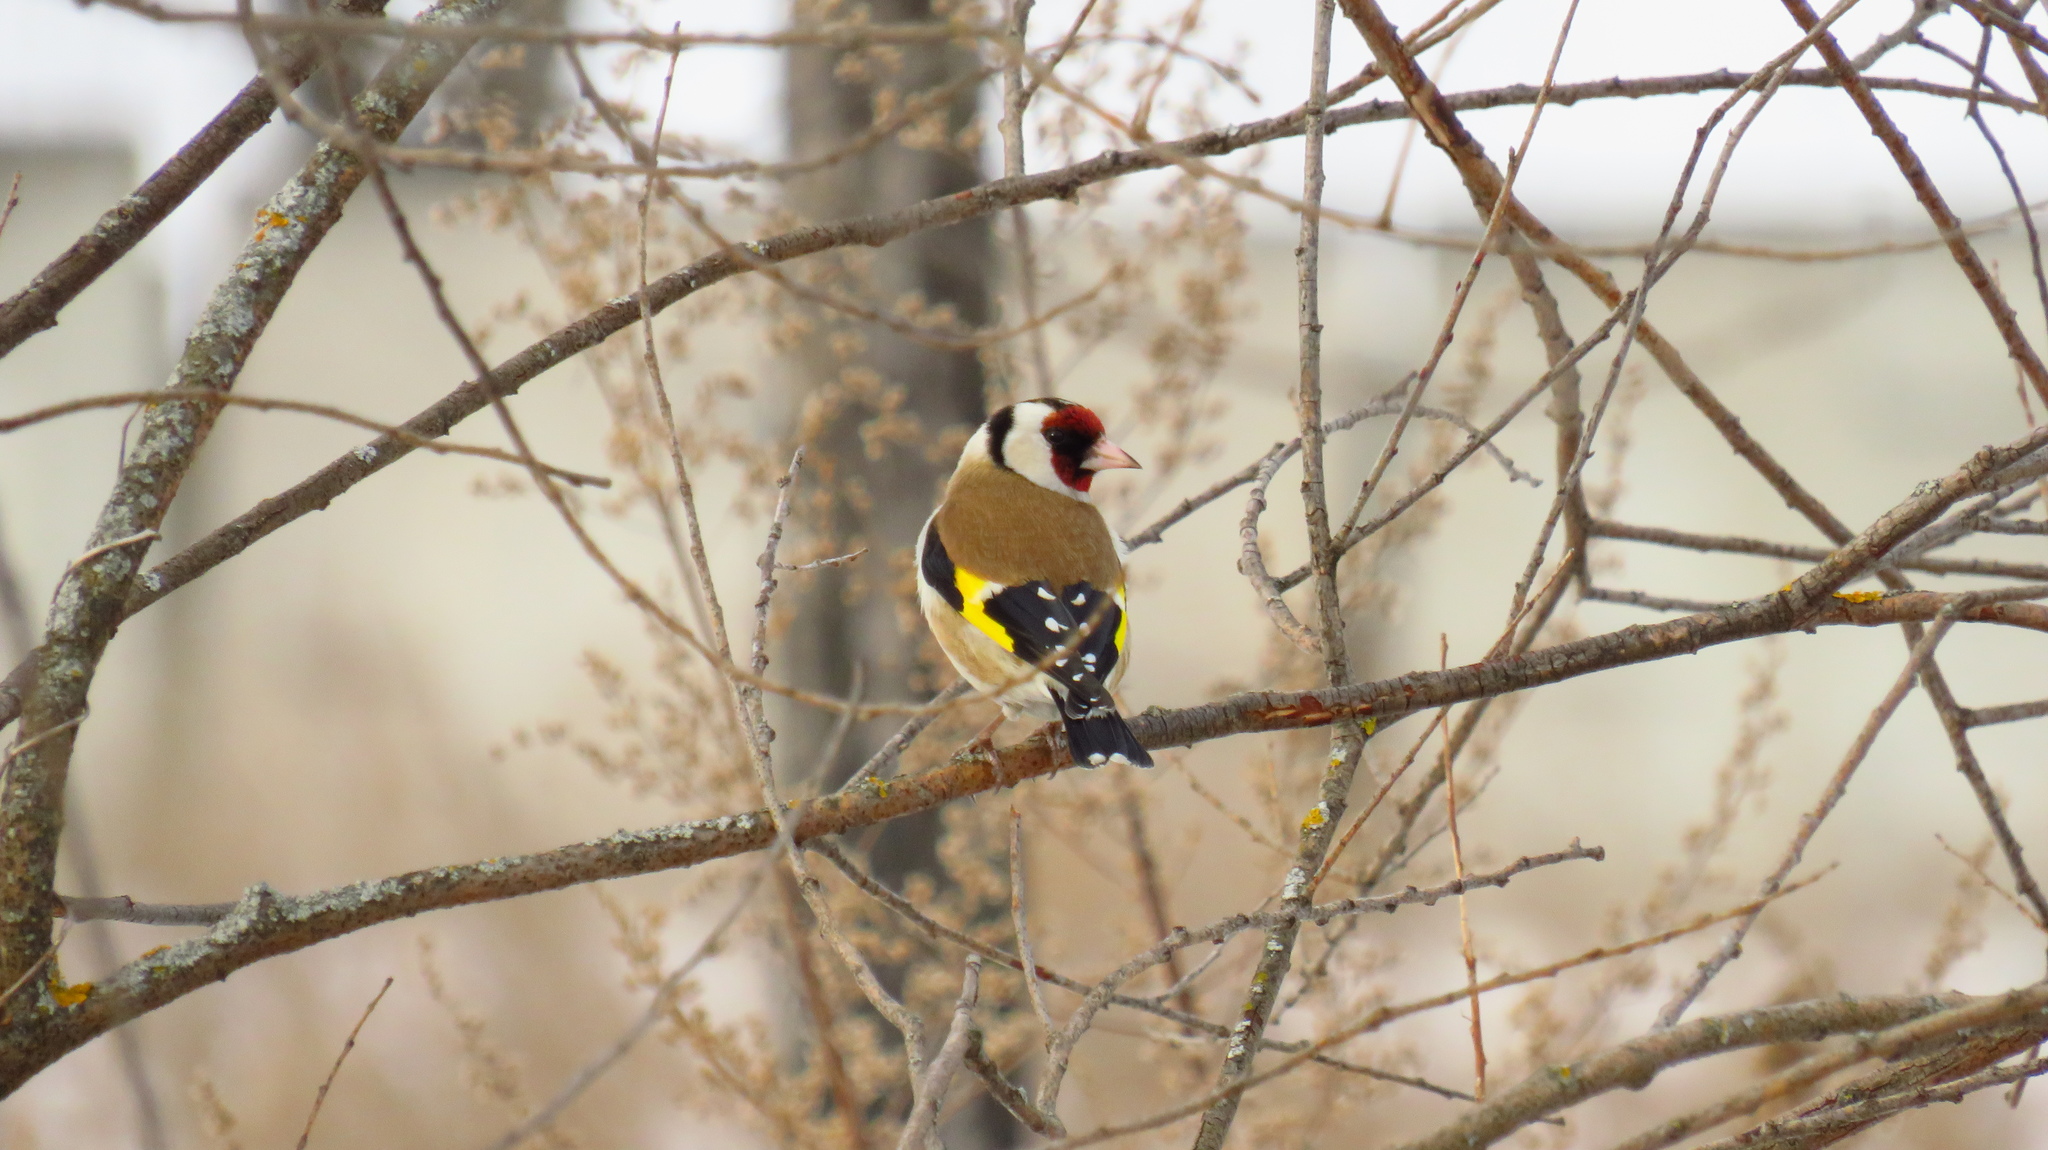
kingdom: Animalia
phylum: Chordata
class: Aves
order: Passeriformes
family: Fringillidae
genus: Carduelis
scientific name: Carduelis carduelis
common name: European goldfinch
